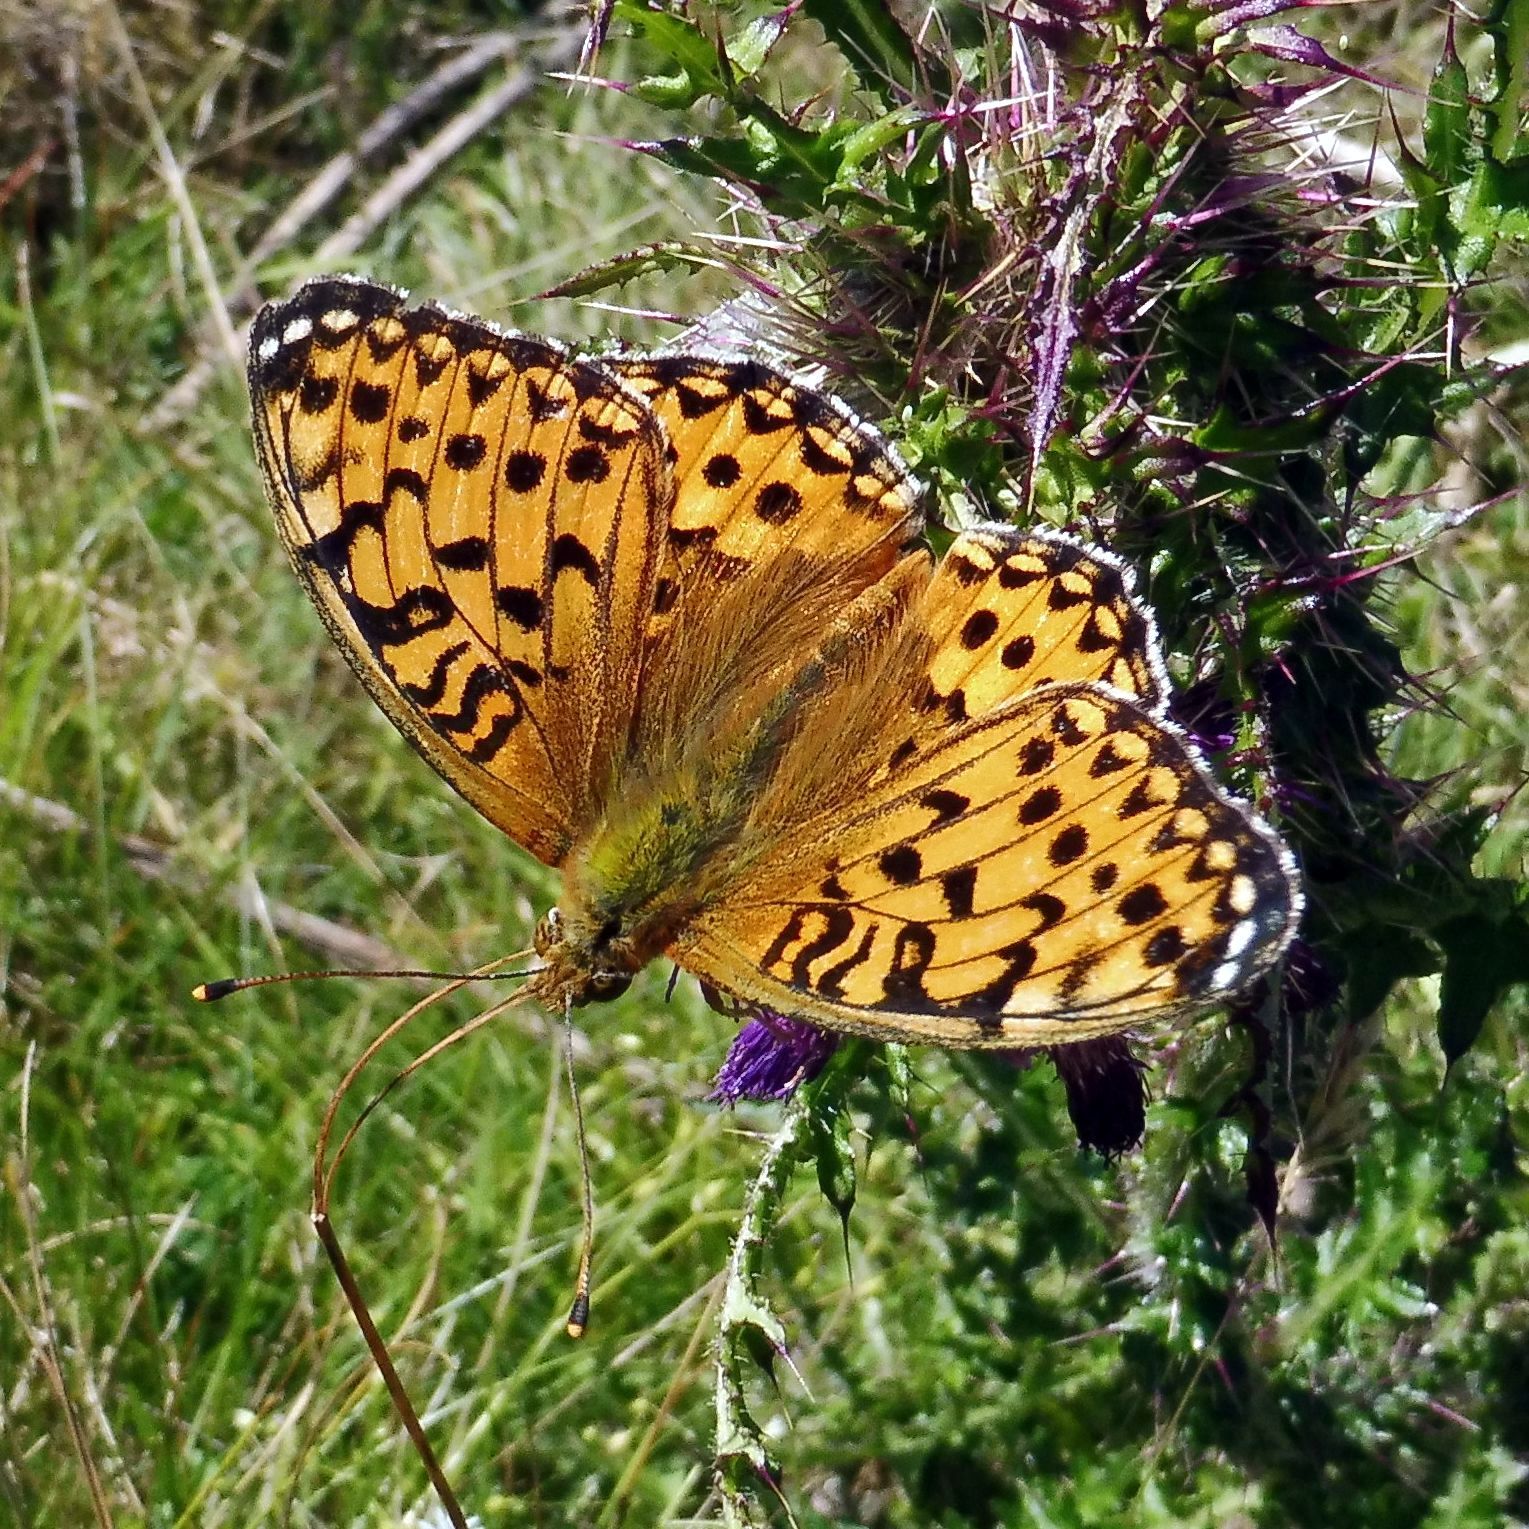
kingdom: Animalia
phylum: Arthropoda
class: Insecta
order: Lepidoptera
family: Nymphalidae
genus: Speyeria
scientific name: Speyeria aglaja
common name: Dark green fritillary
